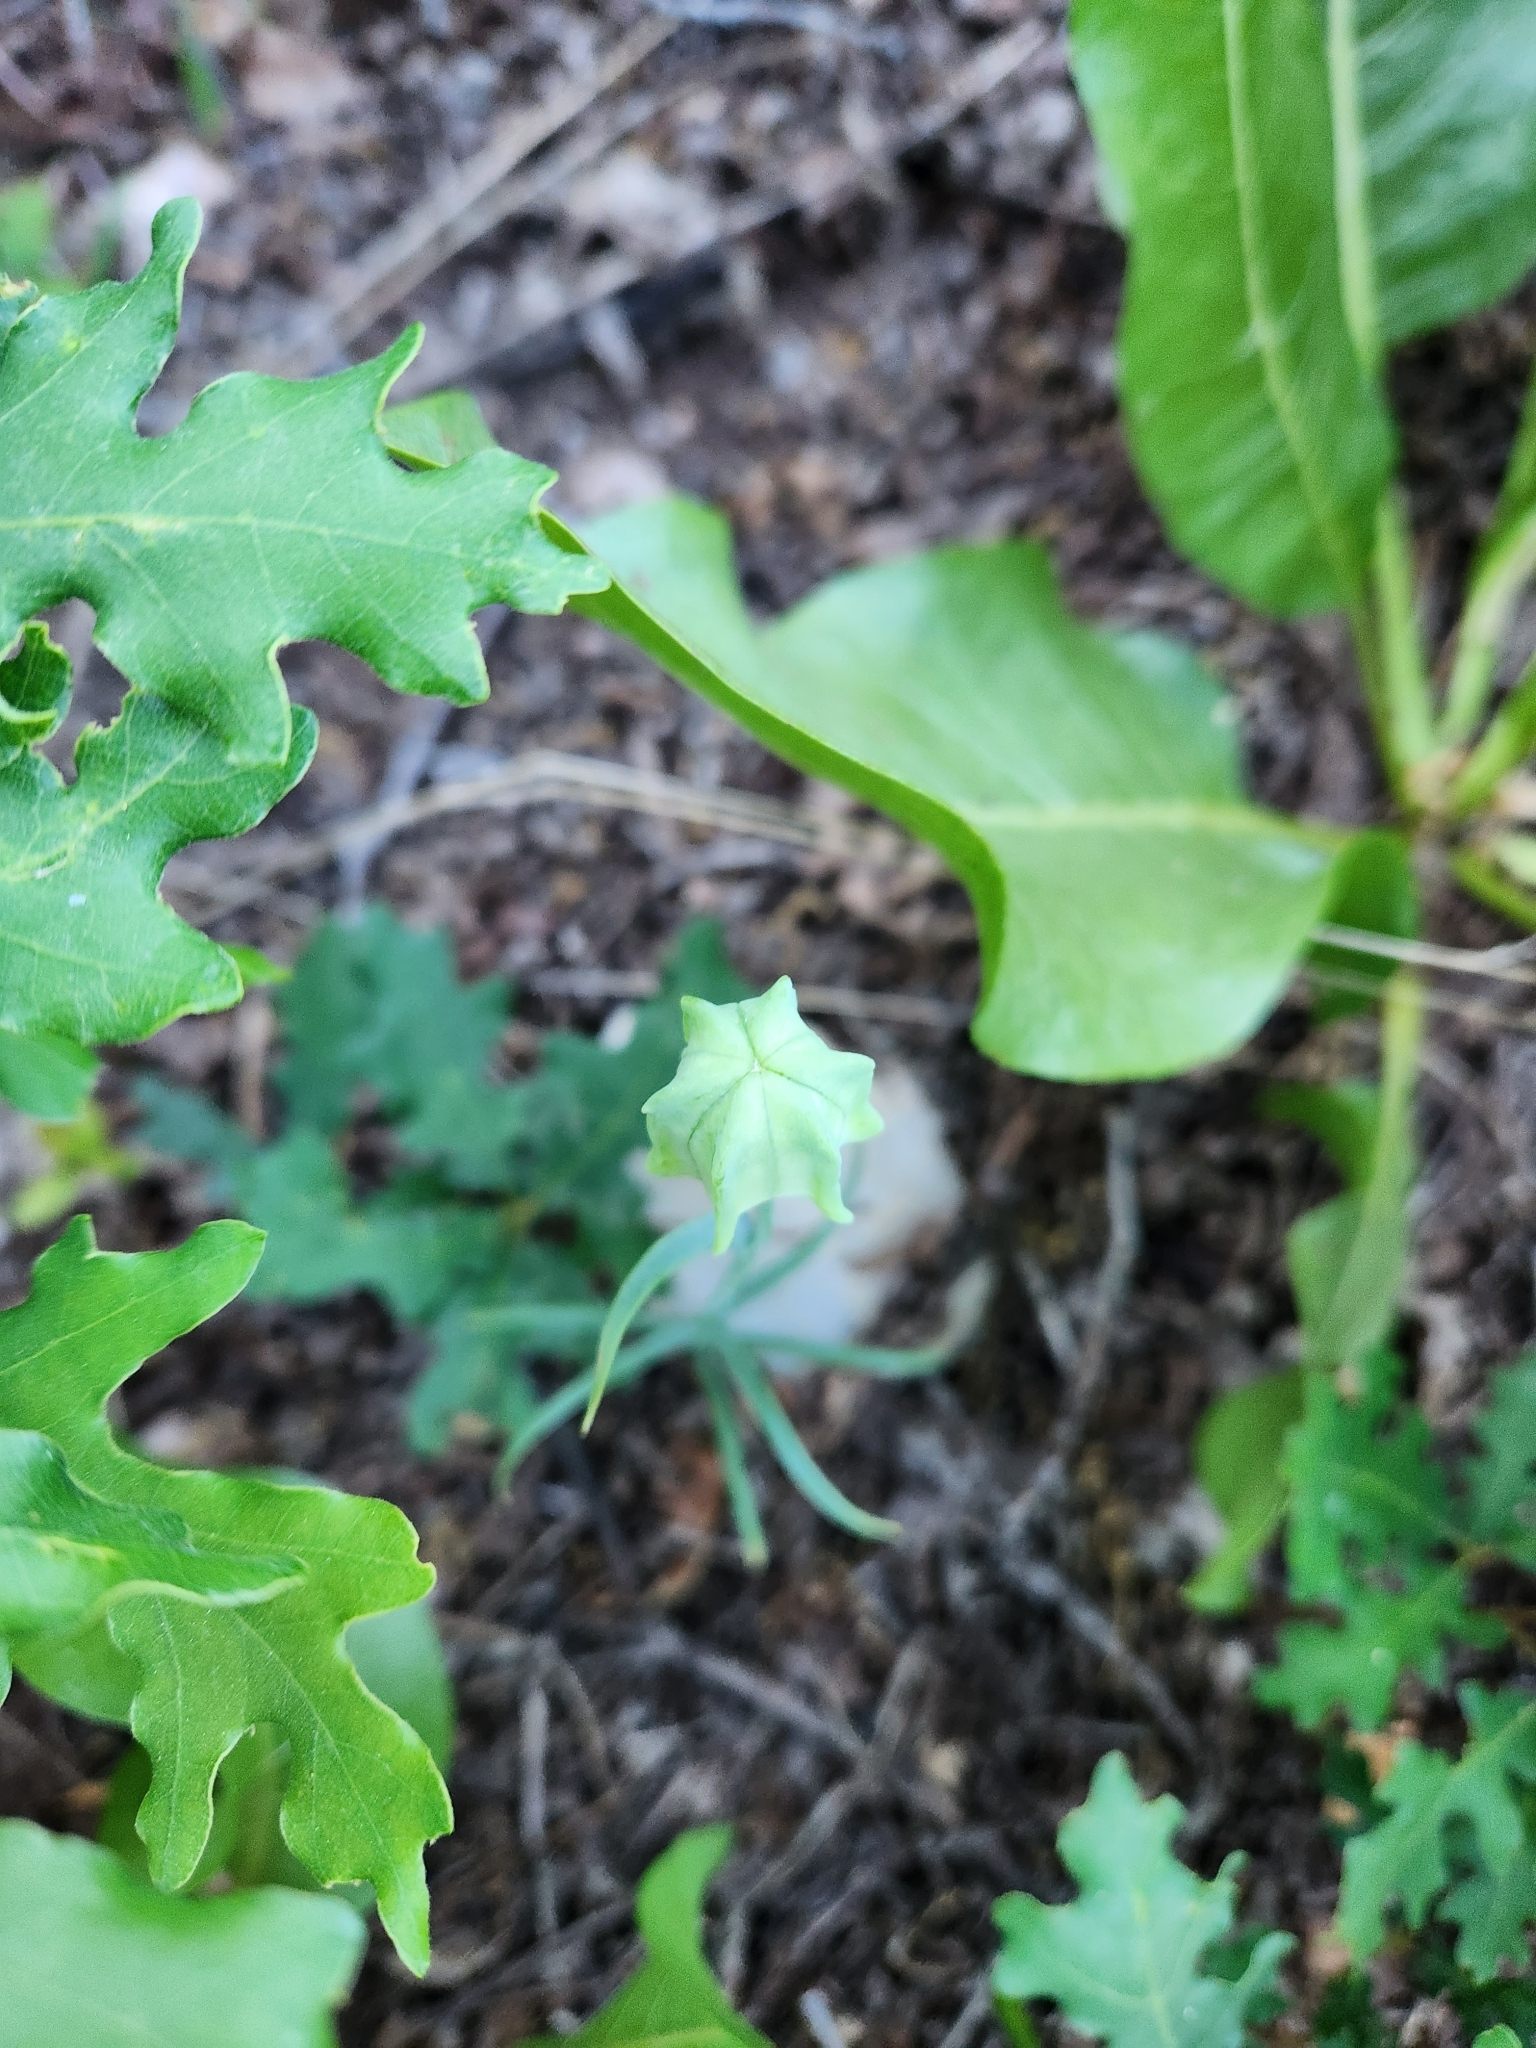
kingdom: Plantae
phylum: Tracheophyta
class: Liliopsida
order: Liliales
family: Liliaceae
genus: Fritillaria
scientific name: Fritillaria atropurpurea
